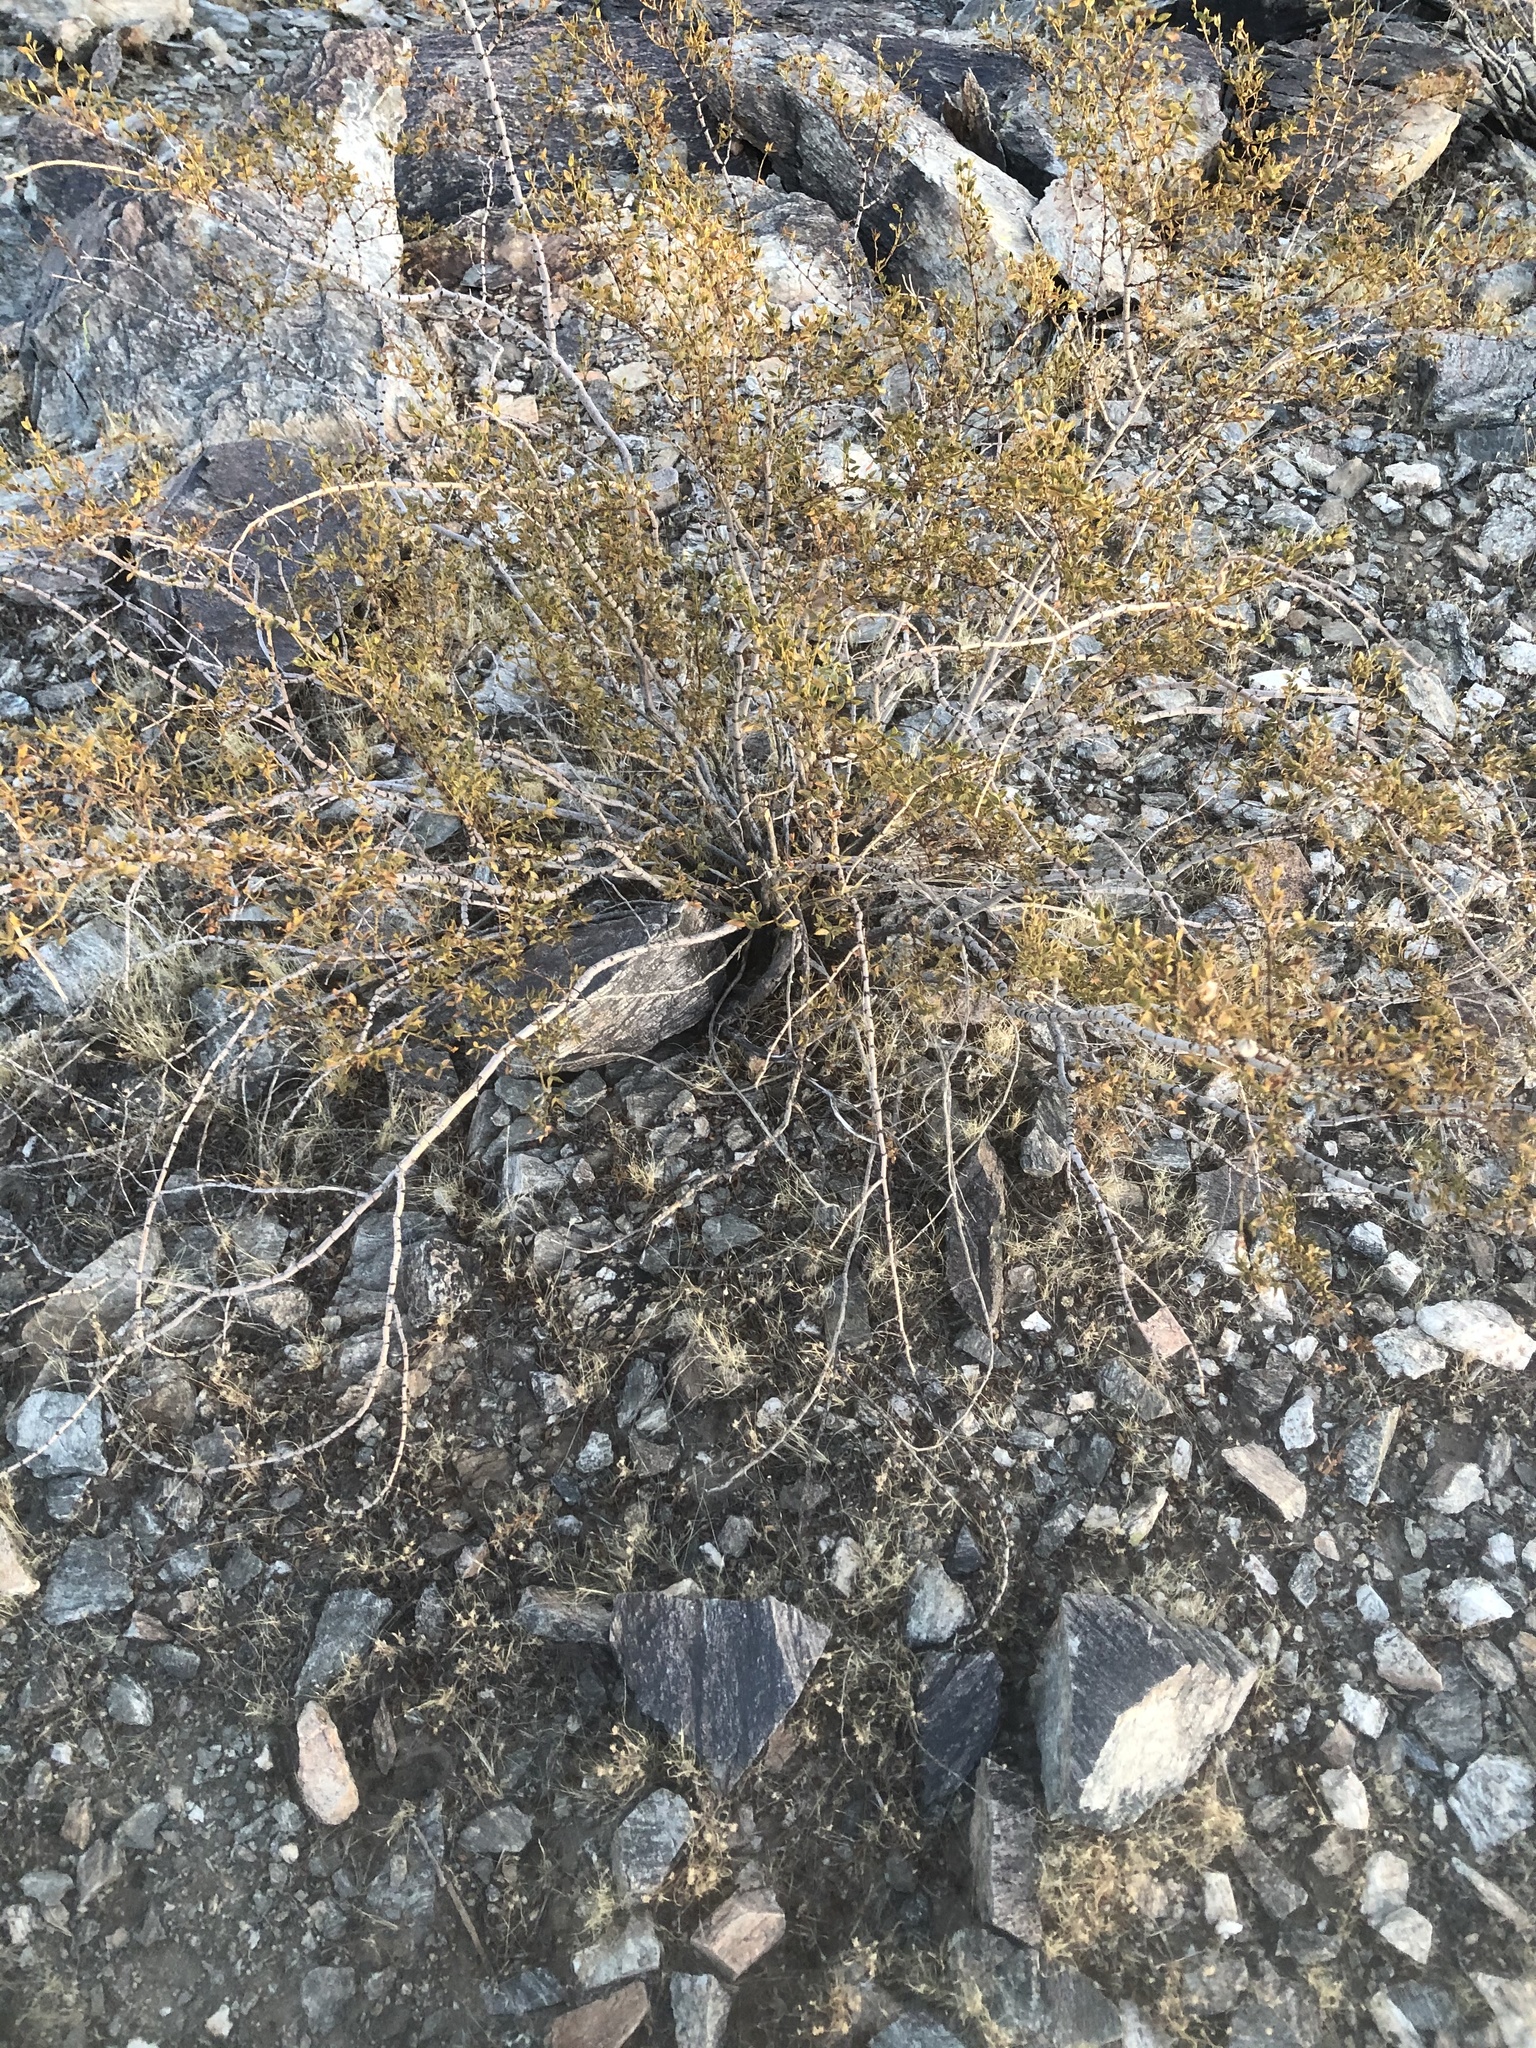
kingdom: Plantae
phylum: Tracheophyta
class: Magnoliopsida
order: Zygophyllales
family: Zygophyllaceae
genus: Larrea
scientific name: Larrea tridentata
